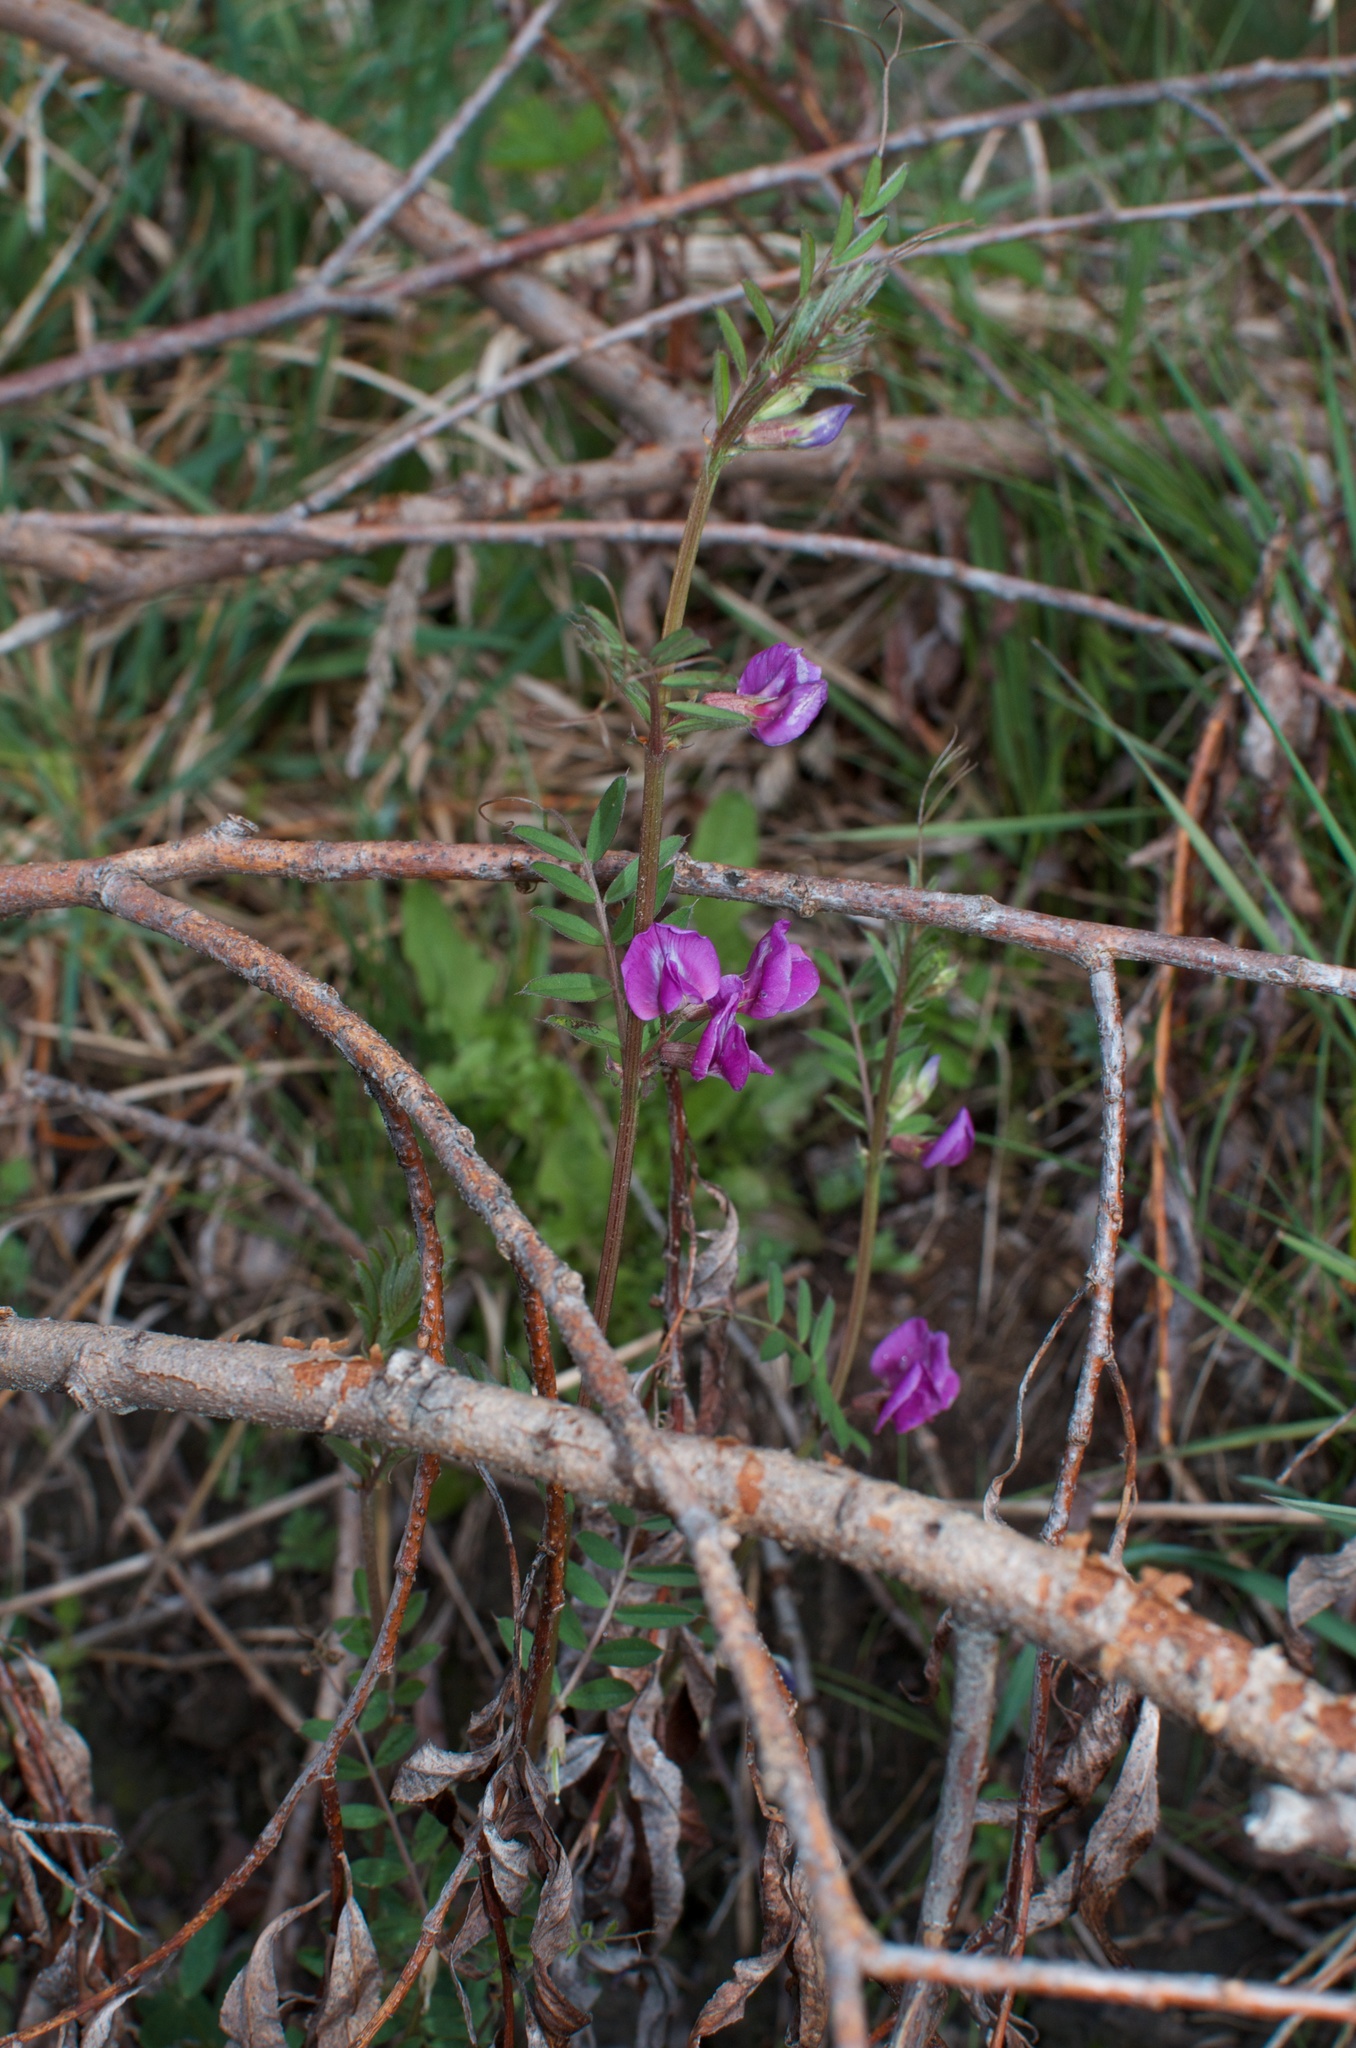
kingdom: Plantae
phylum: Tracheophyta
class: Magnoliopsida
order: Fabales
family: Fabaceae
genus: Vicia
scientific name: Vicia sativa
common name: Garden vetch
